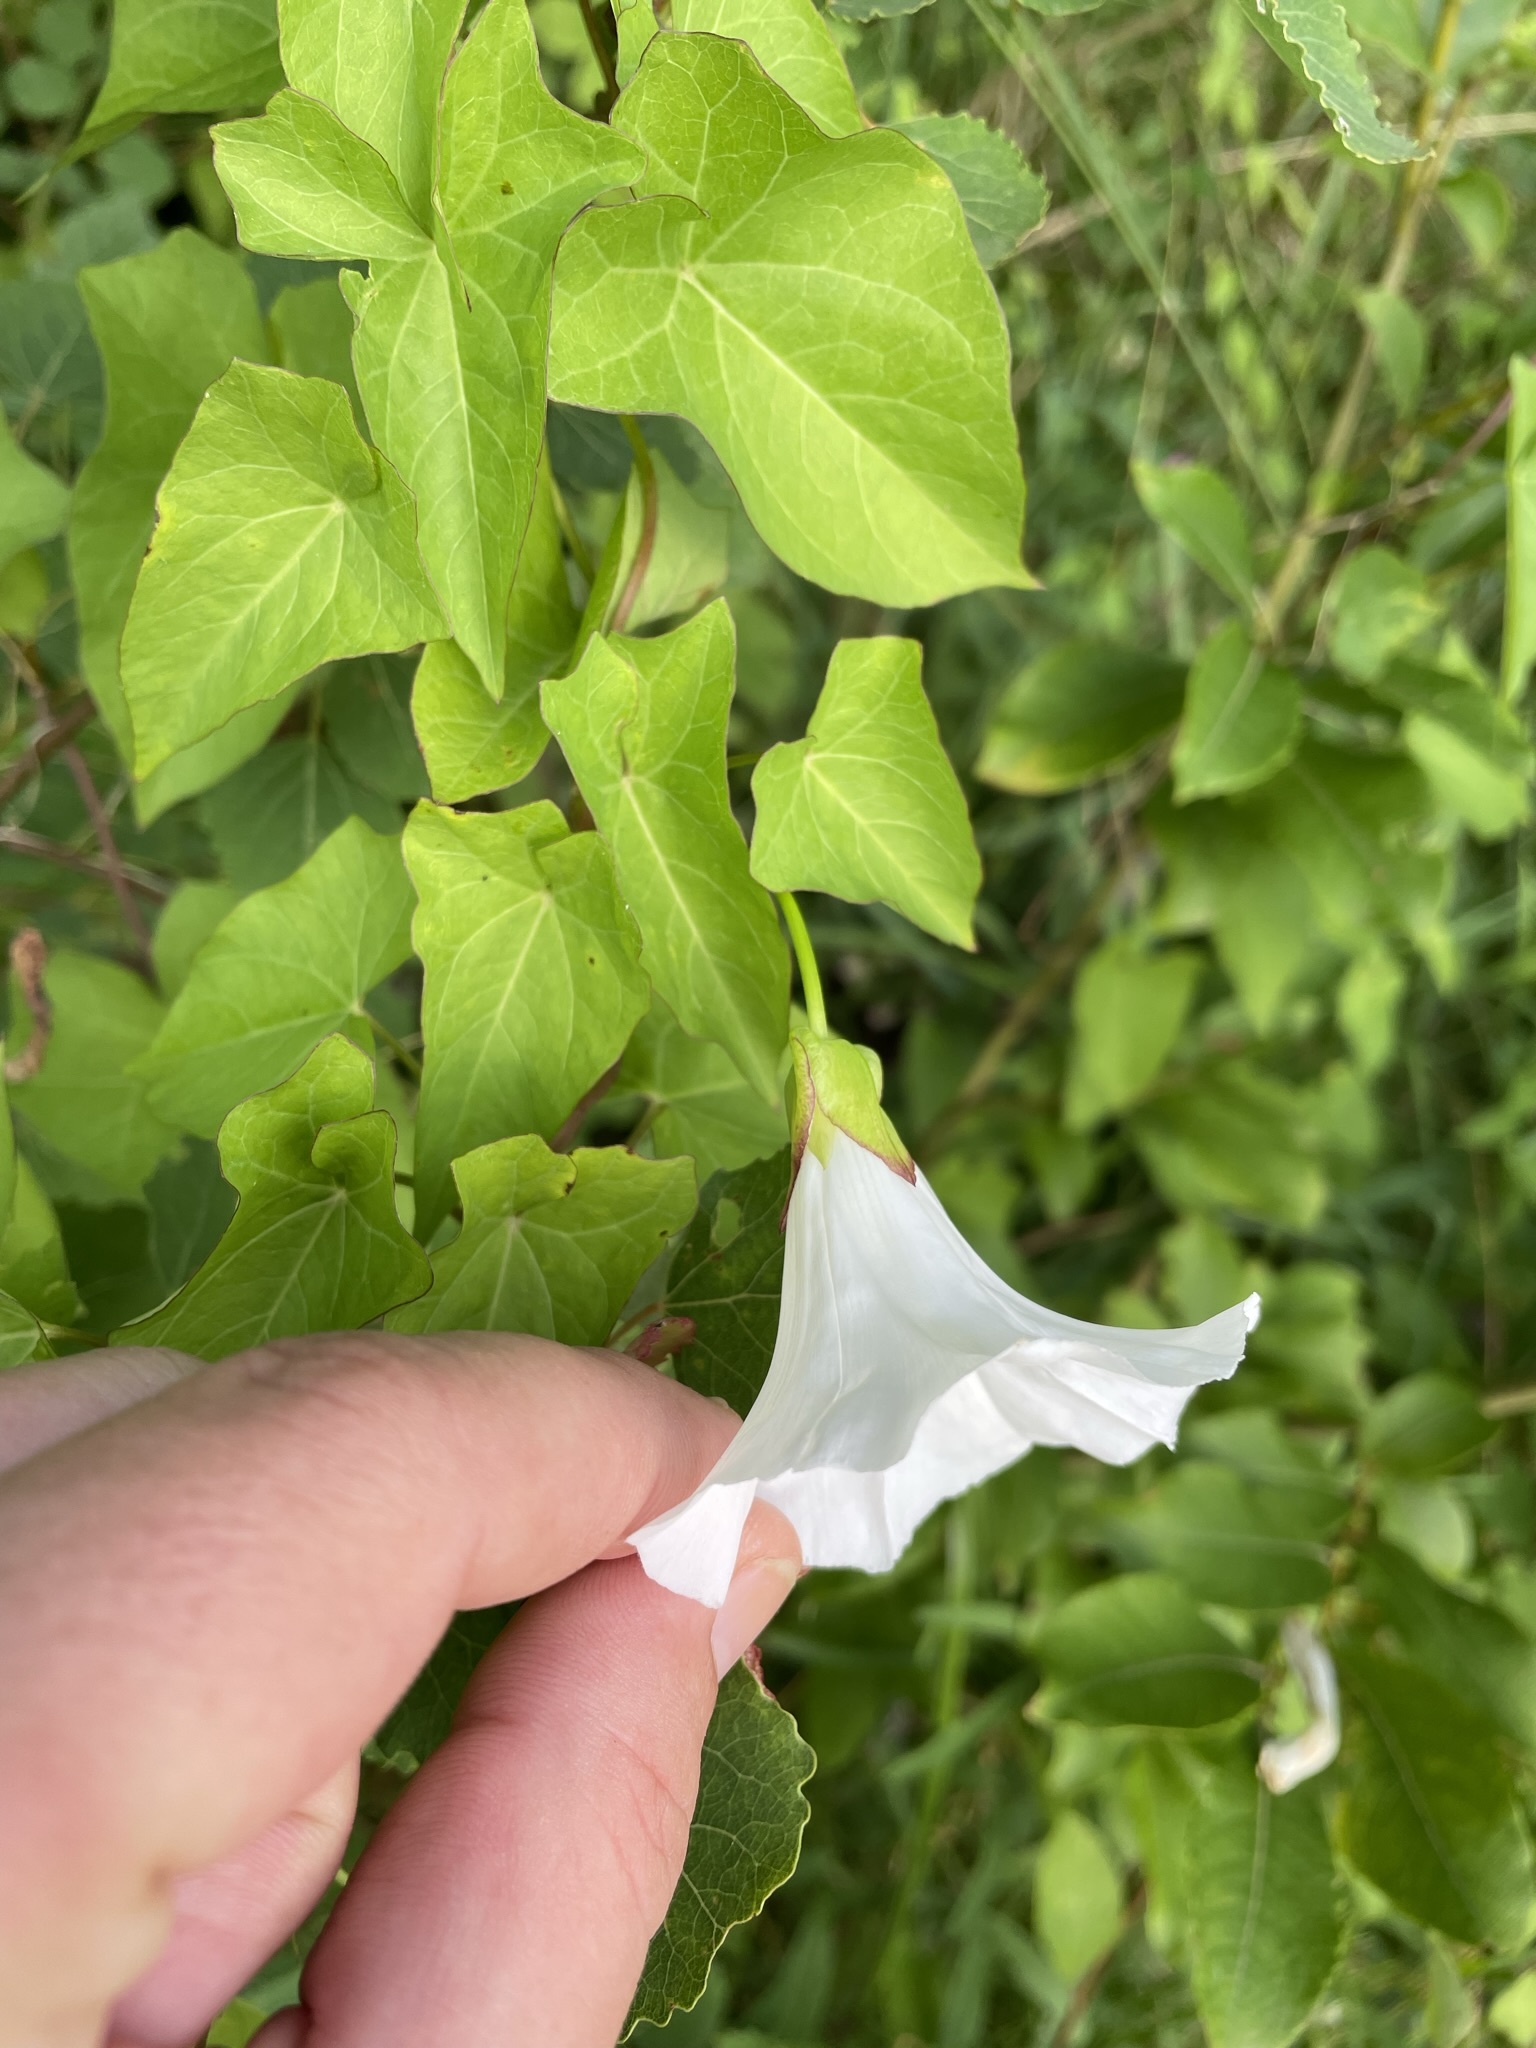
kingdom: Plantae
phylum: Tracheophyta
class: Magnoliopsida
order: Solanales
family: Convolvulaceae
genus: Calystegia
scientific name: Calystegia sepium
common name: Hedge bindweed
